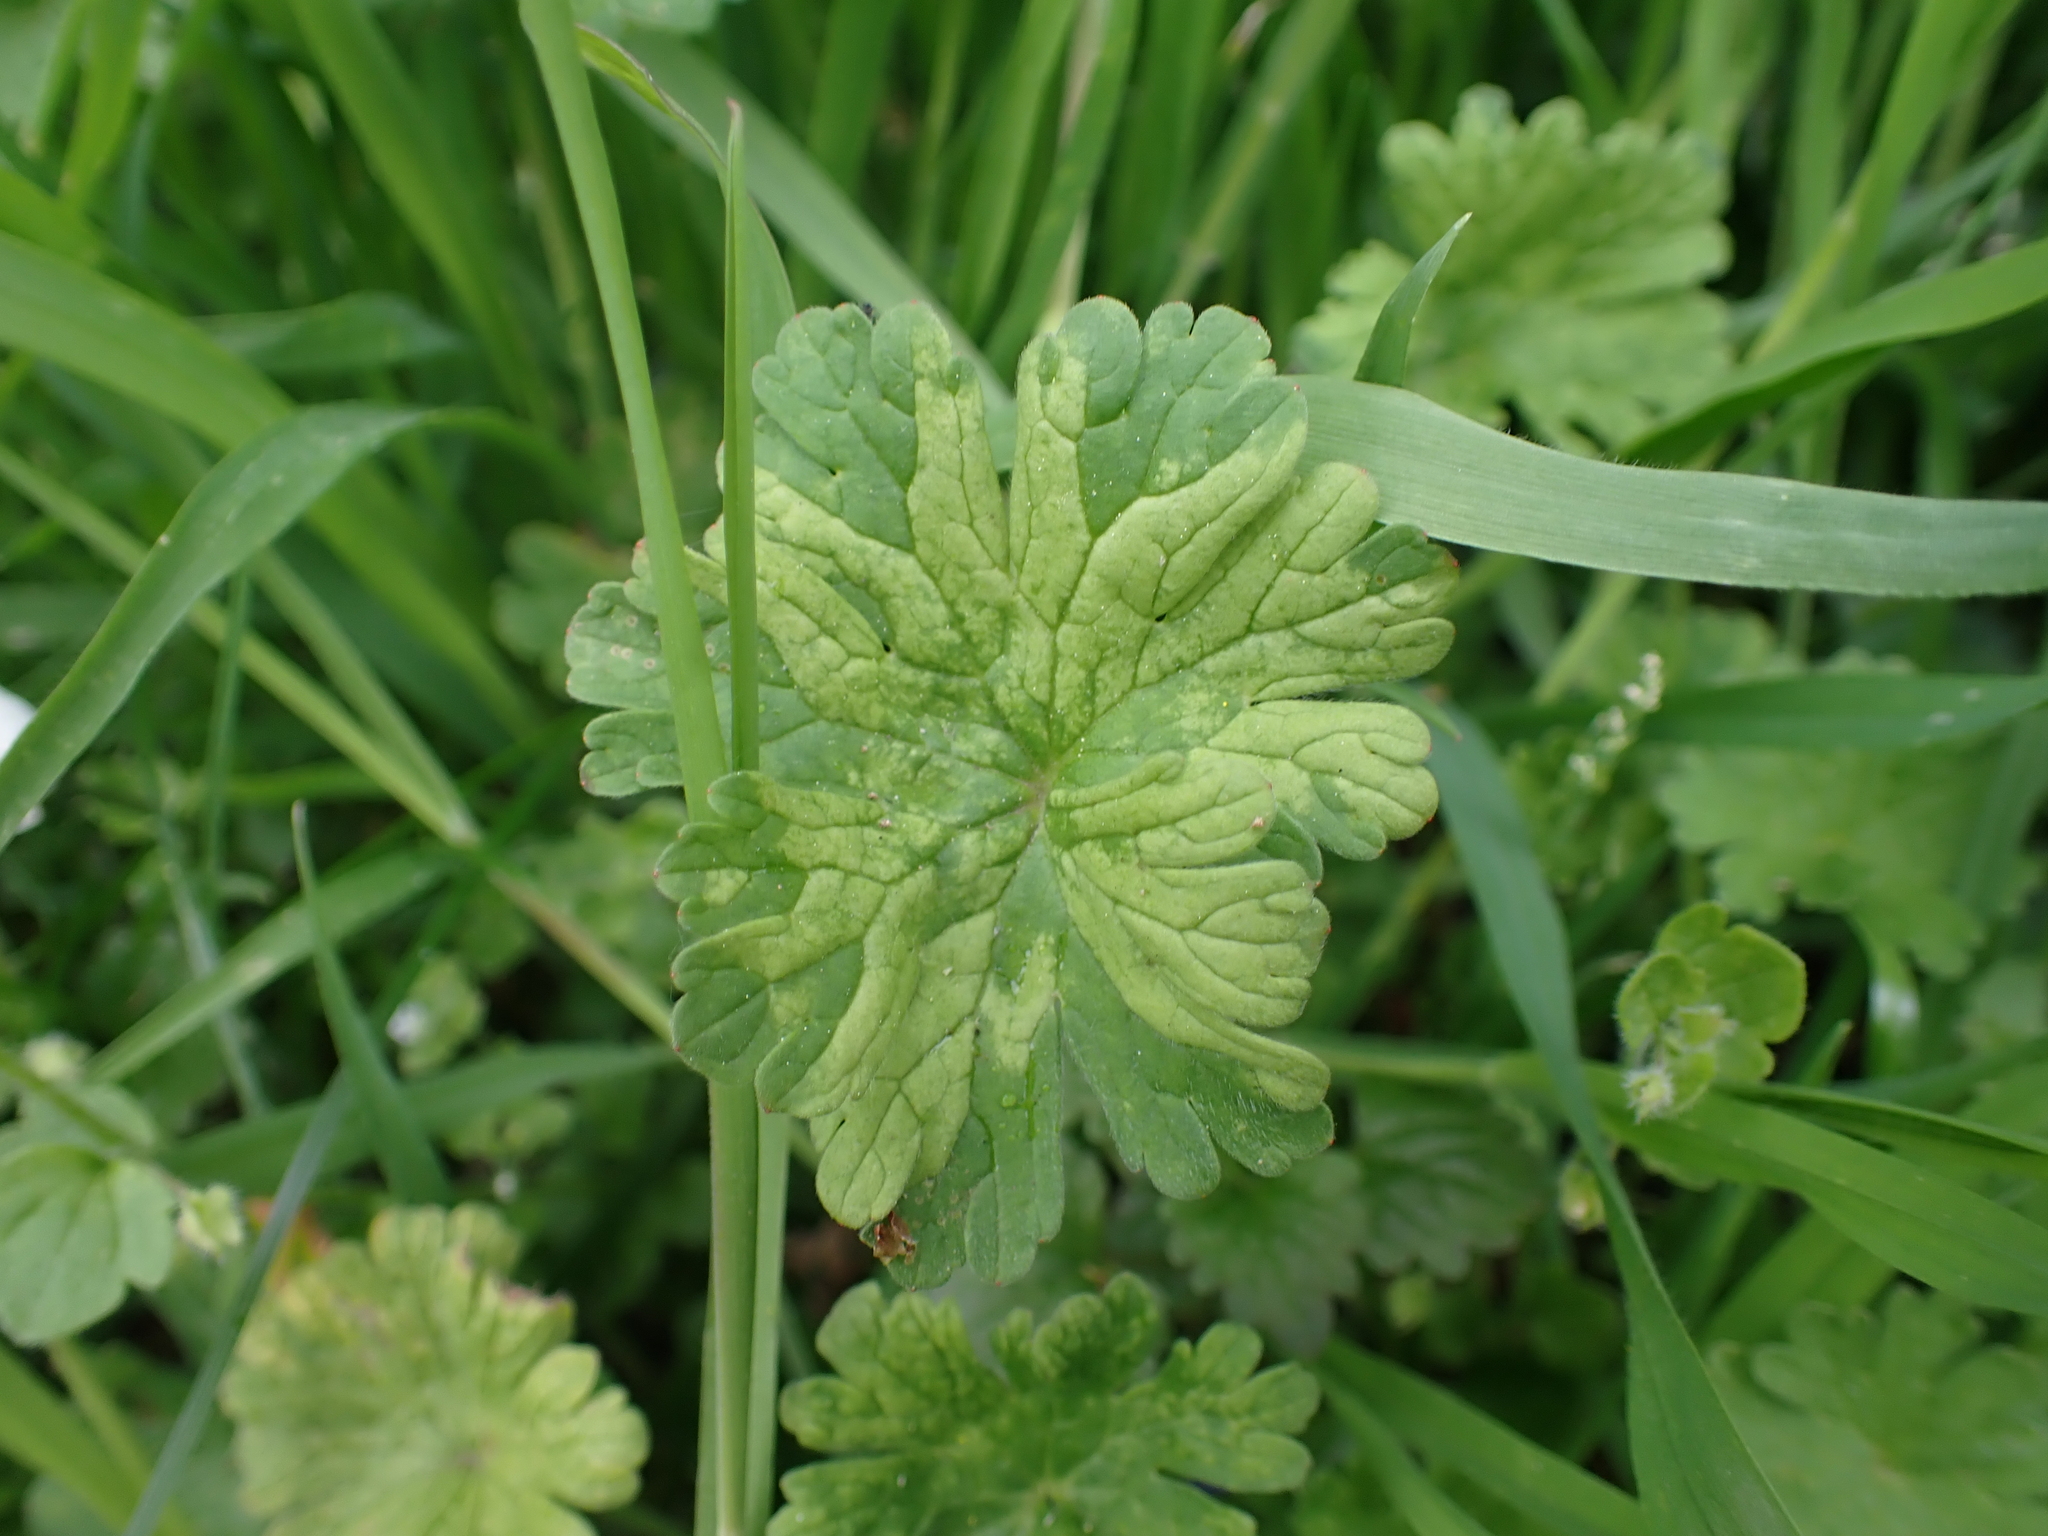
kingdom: Chromista
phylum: Oomycota
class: Peronosporea
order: Peronosporales
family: Peronosporaceae
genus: Peronospora
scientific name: Peronospora conglomerata
